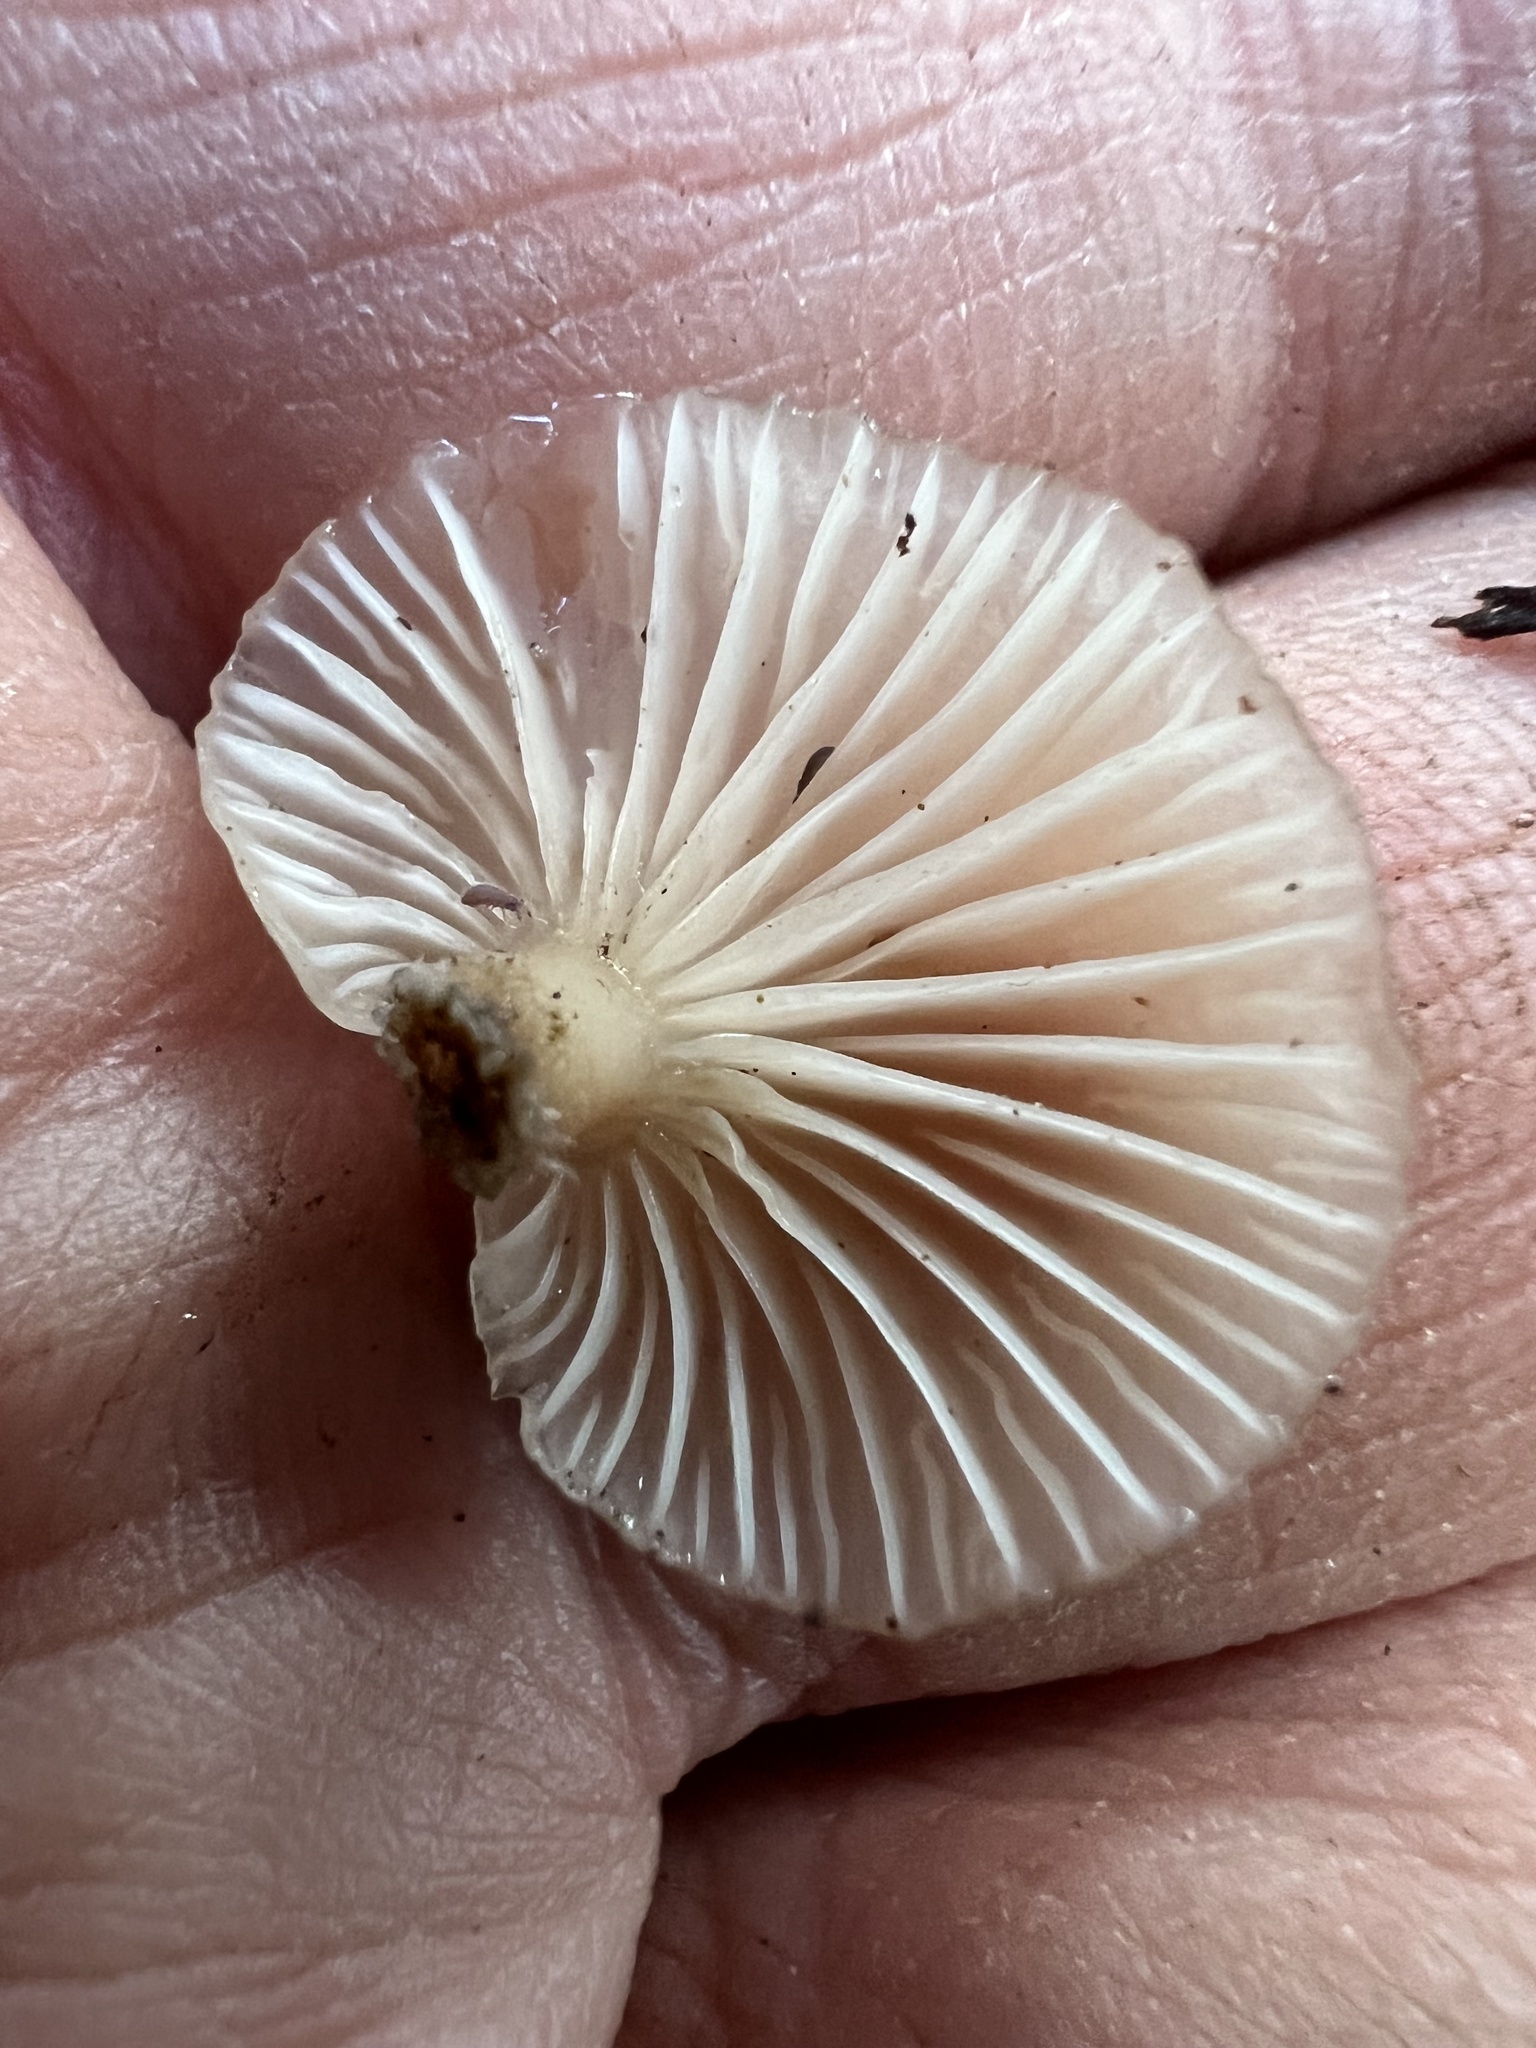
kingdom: Fungi
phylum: Basidiomycota
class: Agaricomycetes
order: Agaricales
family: Mycenaceae
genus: Panellus
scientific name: Panellus longinquus
